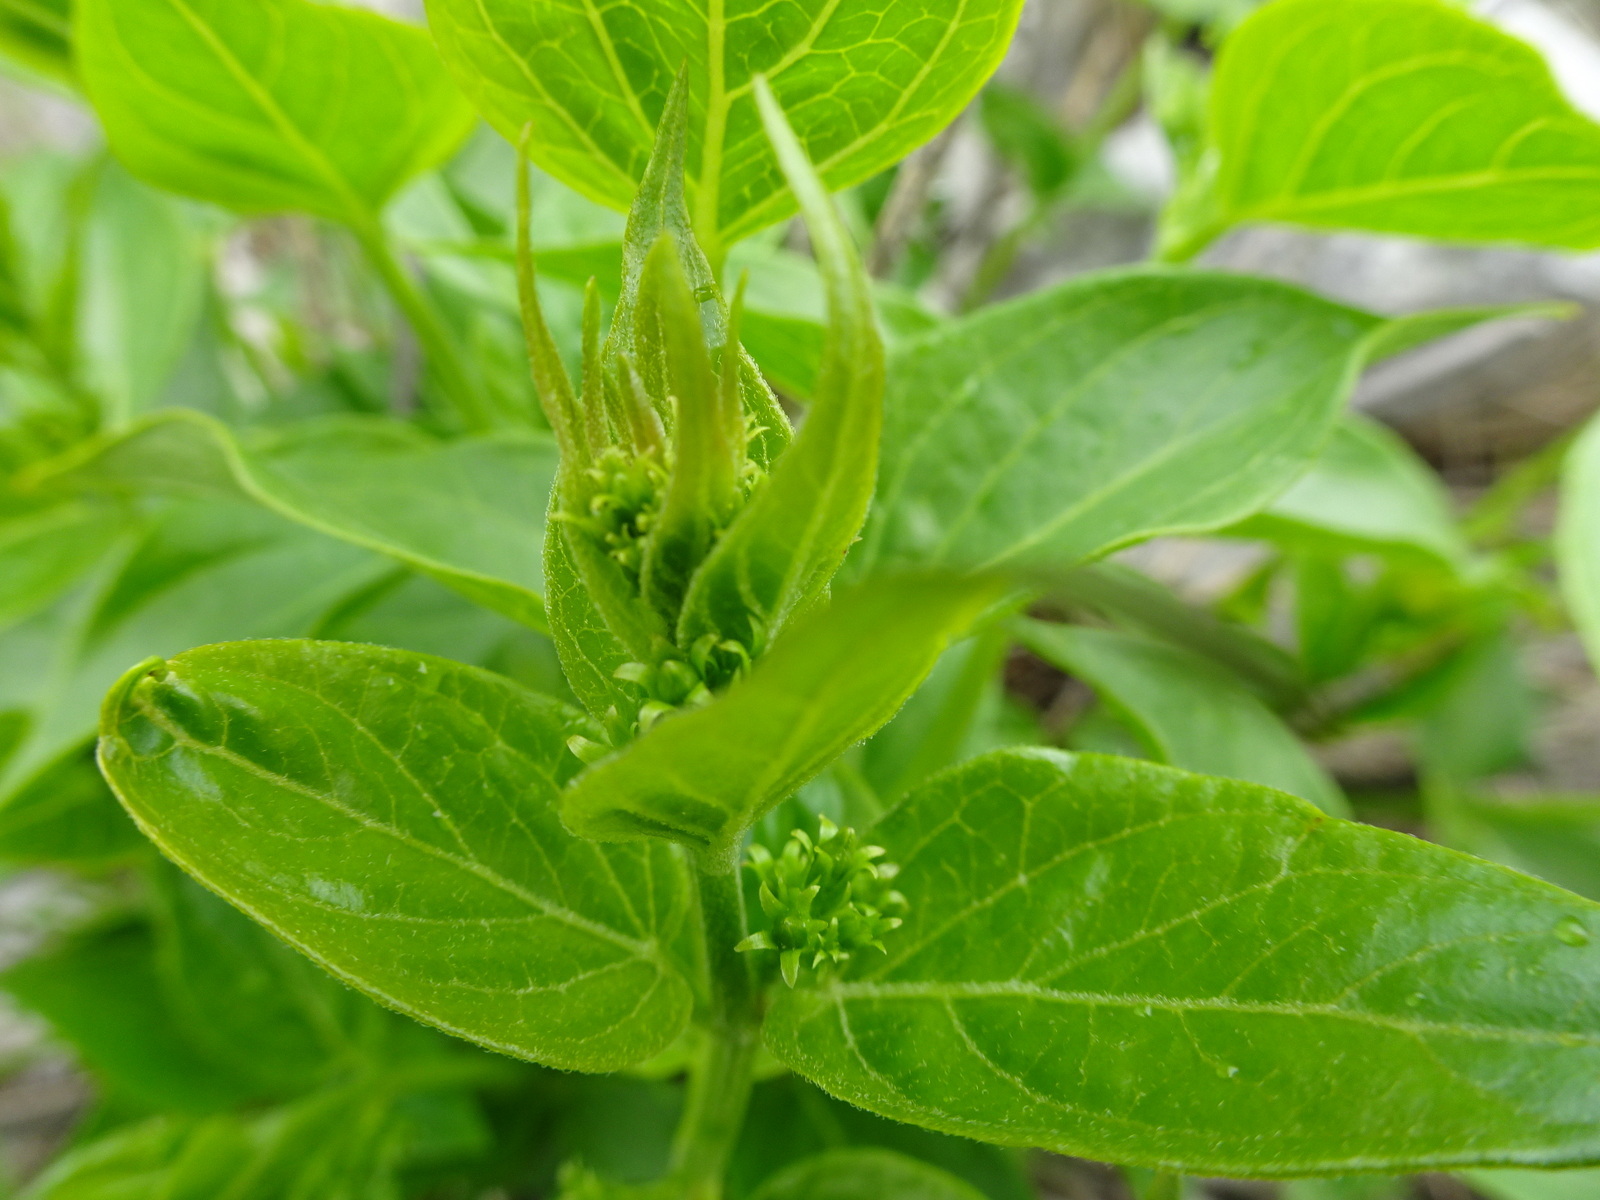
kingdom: Plantae
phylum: Tracheophyta
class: Magnoliopsida
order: Gentianales
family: Apocynaceae
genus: Vincetoxicum
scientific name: Vincetoxicum hirundinaria
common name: White swallowwort
